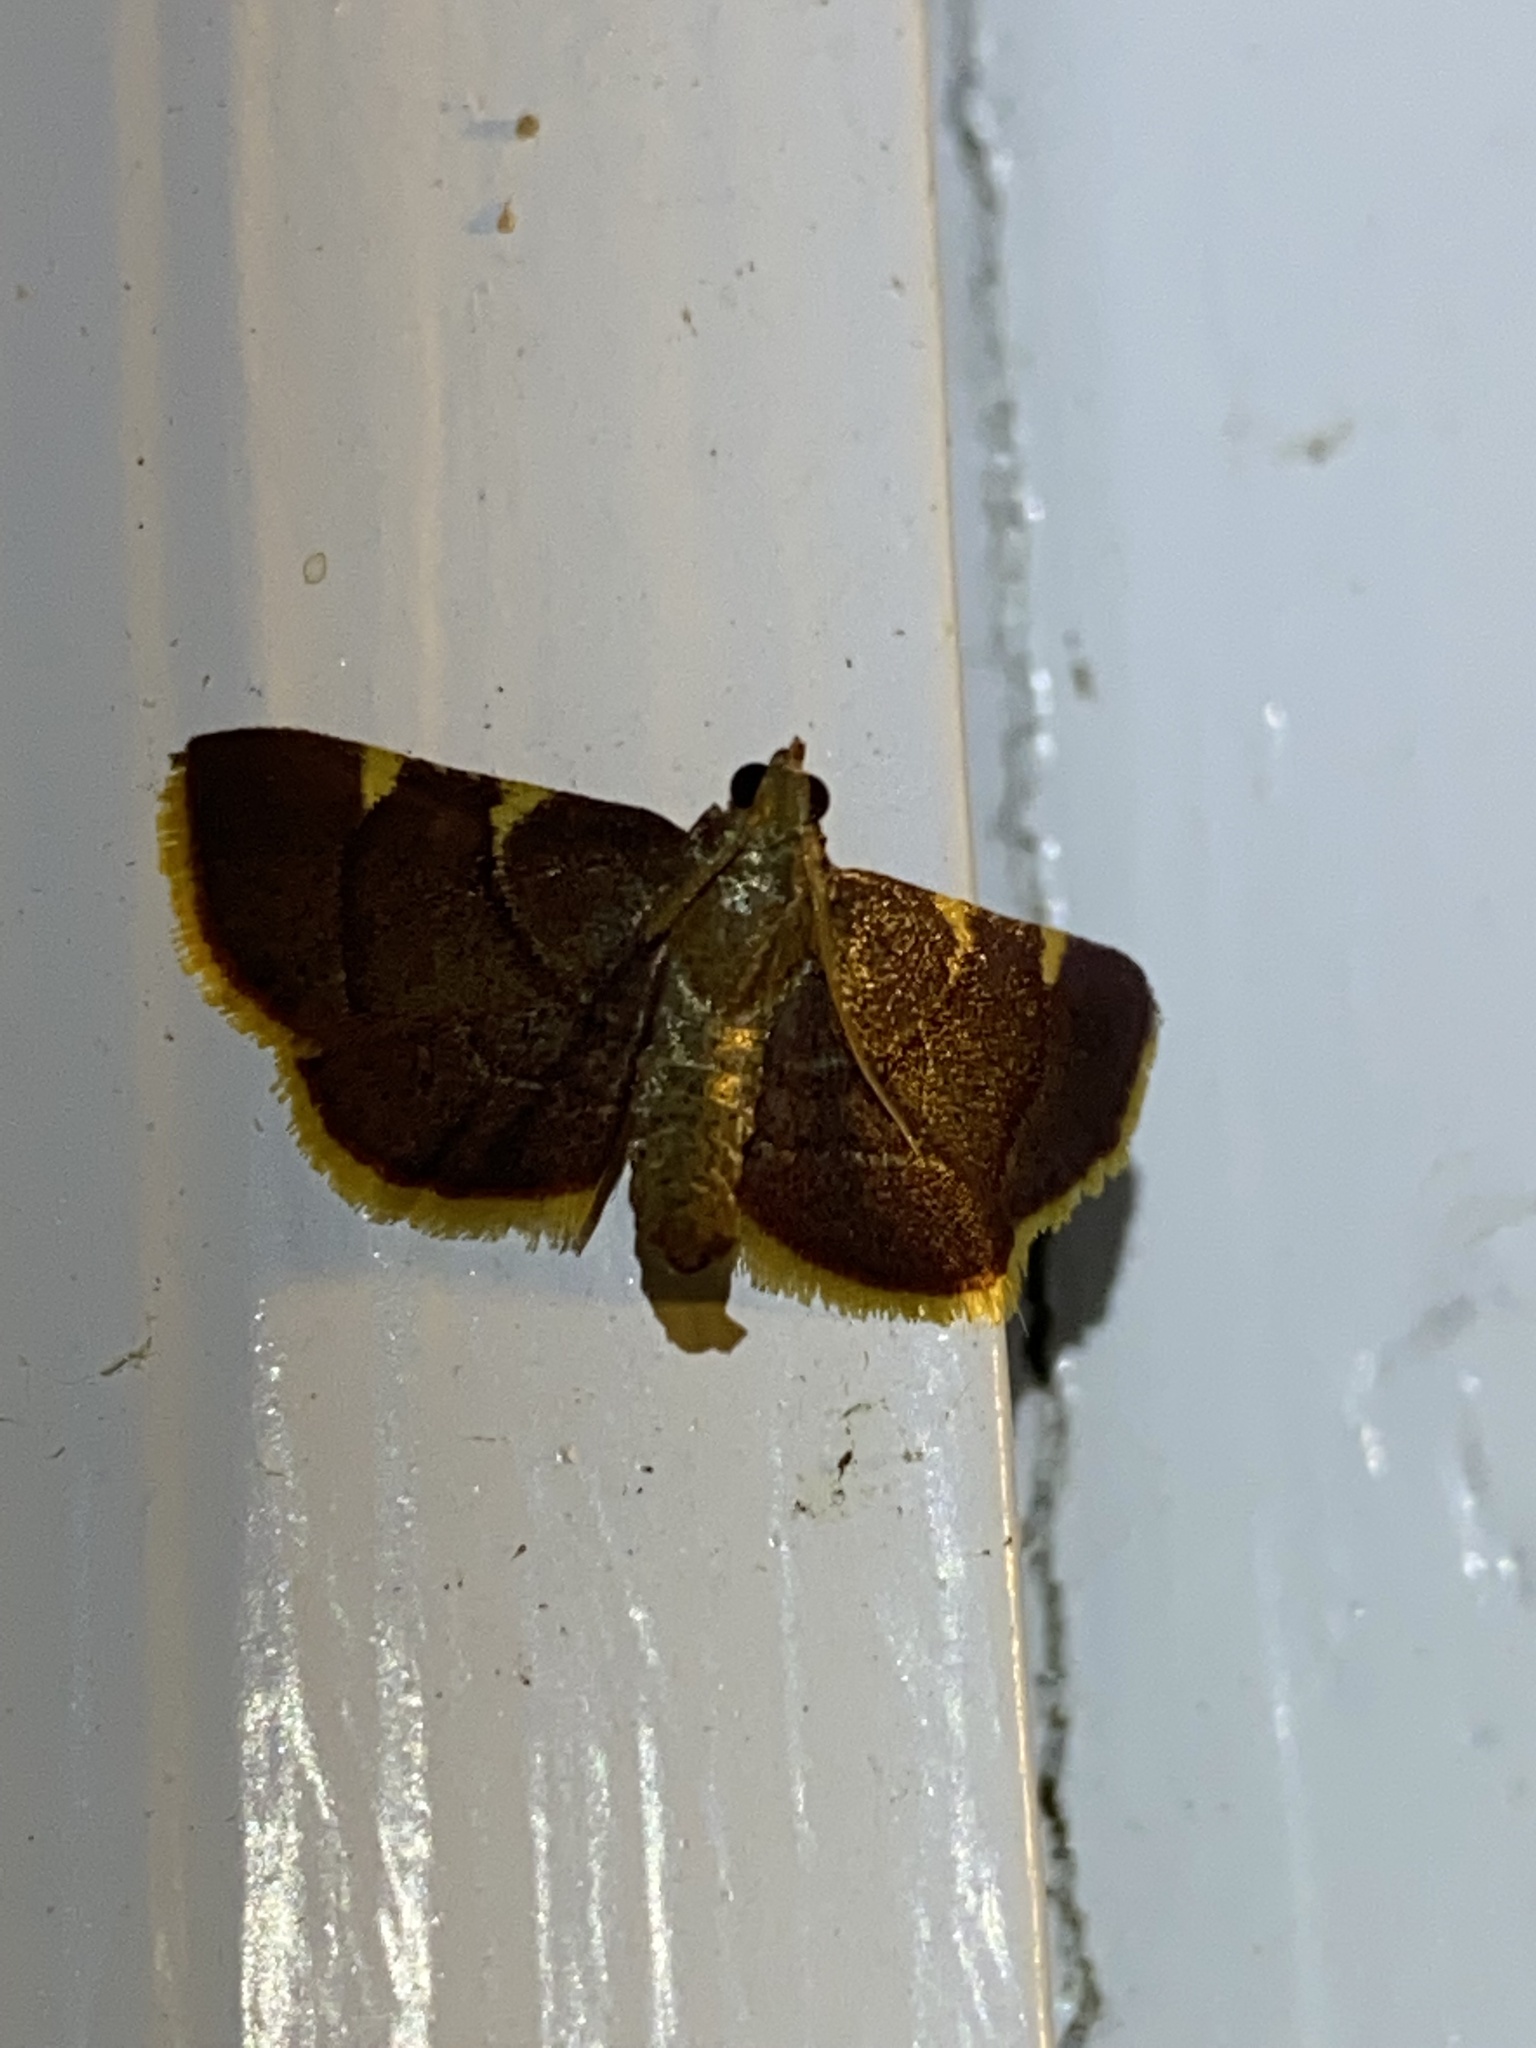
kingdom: Animalia
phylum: Arthropoda
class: Insecta
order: Lepidoptera
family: Pyralidae
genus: Hypsopygia
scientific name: Hypsopygia olinalis
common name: Yellow-fringed dolichomia moth
